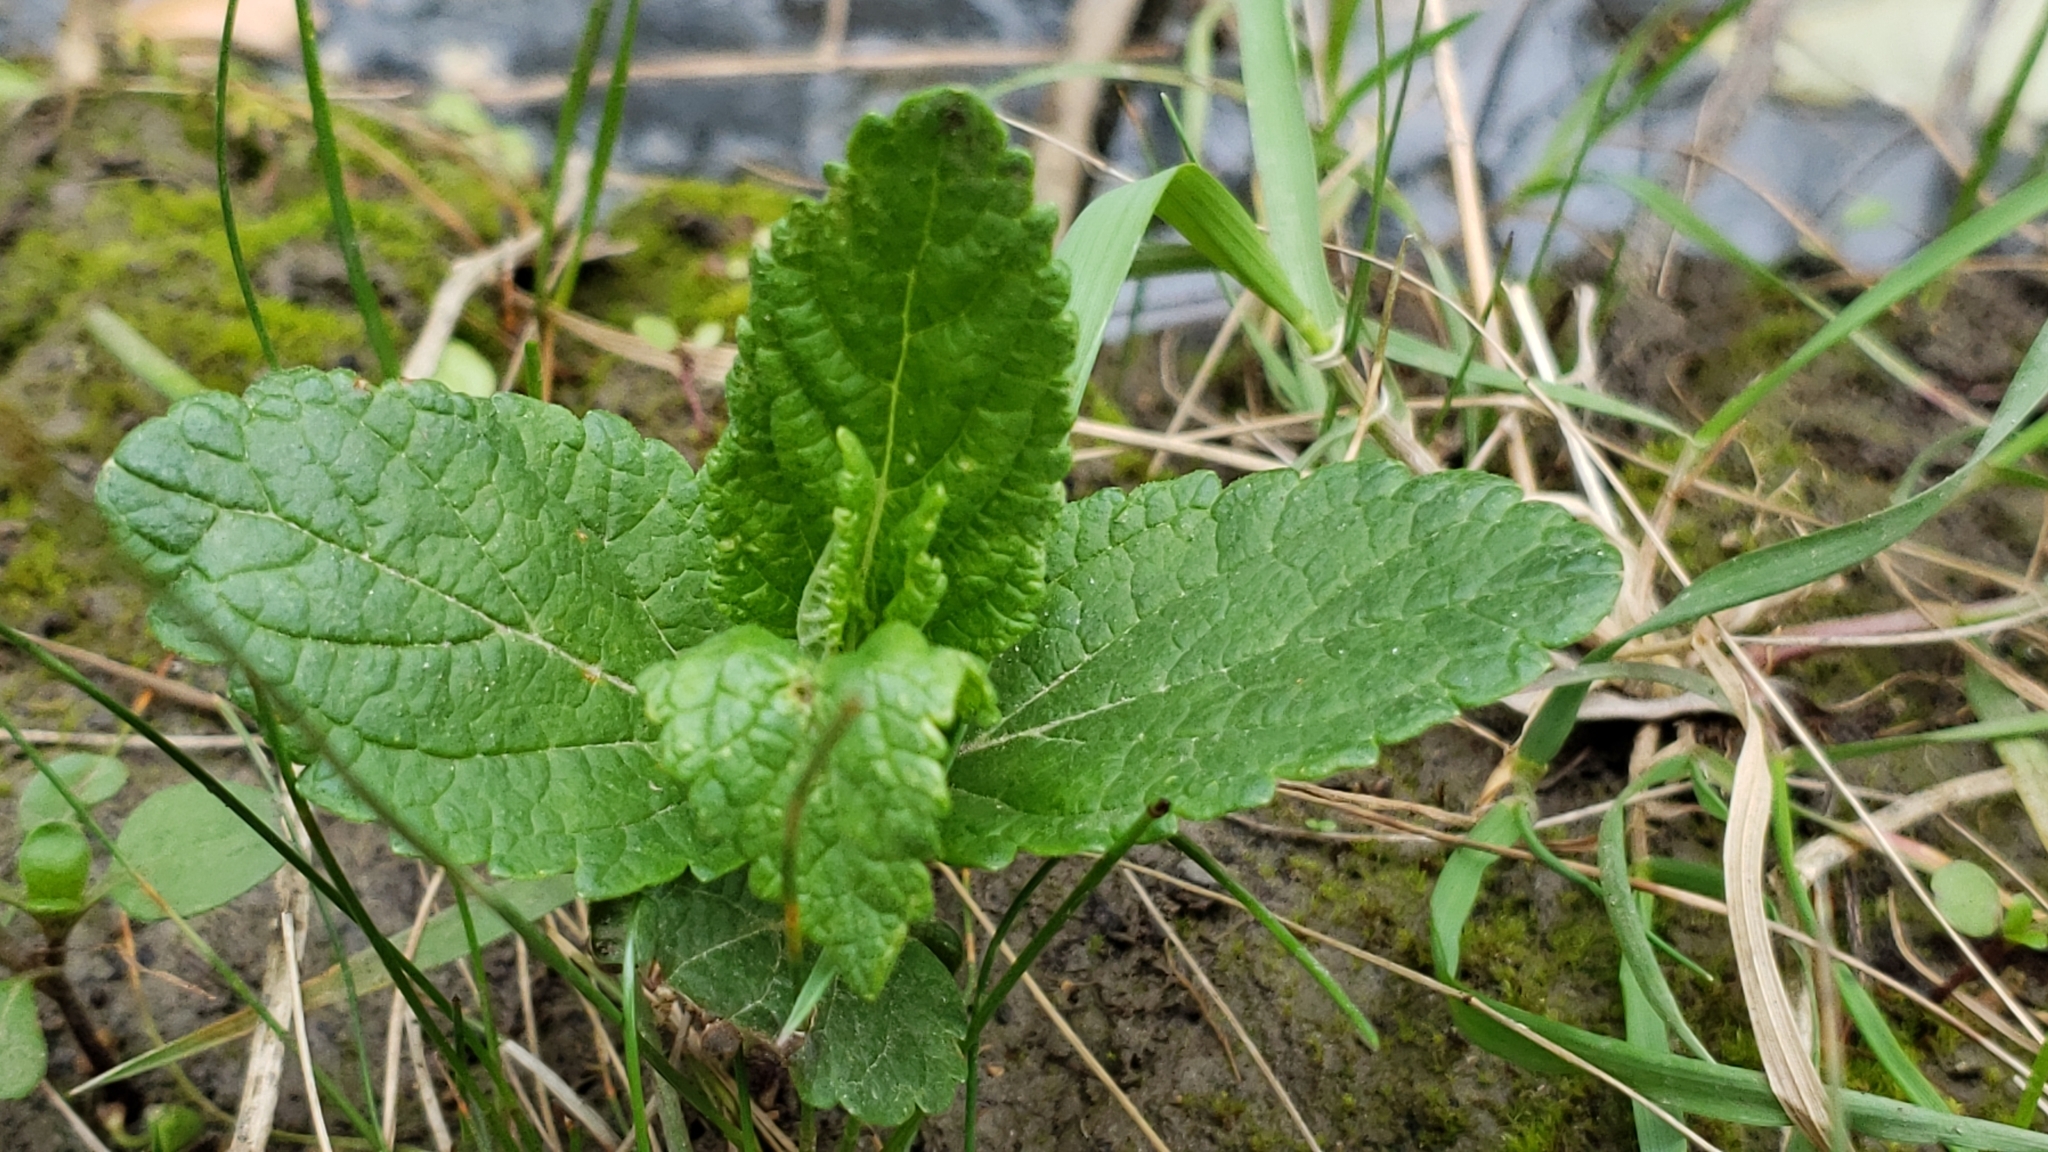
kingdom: Plantae
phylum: Tracheophyta
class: Magnoliopsida
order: Lamiales
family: Lamiaceae
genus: Teucrium
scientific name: Teucrium canadense
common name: American germander
